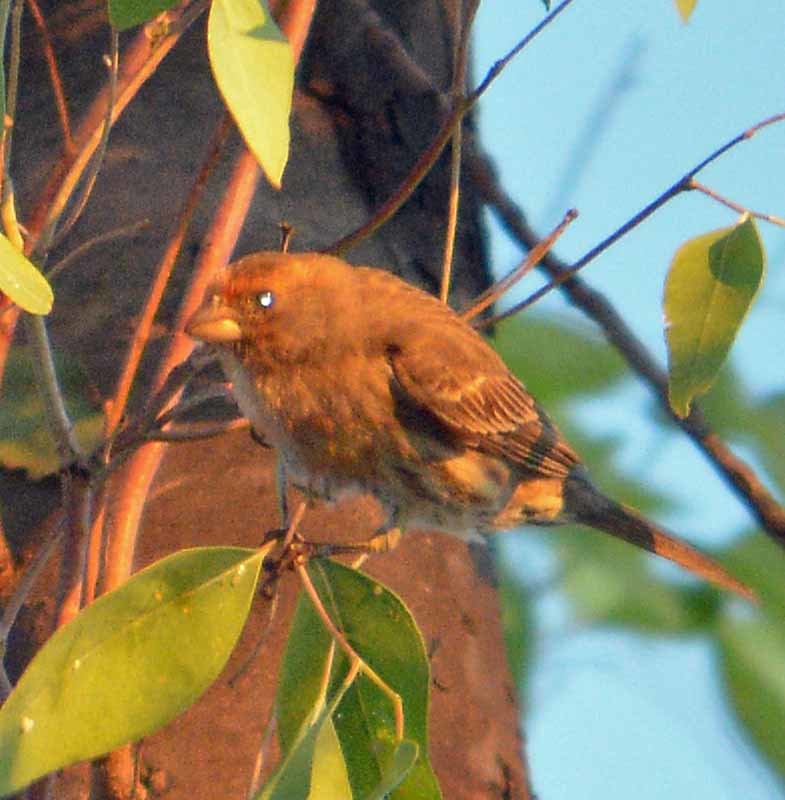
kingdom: Animalia
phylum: Chordata
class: Aves
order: Passeriformes
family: Fringillidae
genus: Haemorhous
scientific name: Haemorhous mexicanus
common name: House finch
